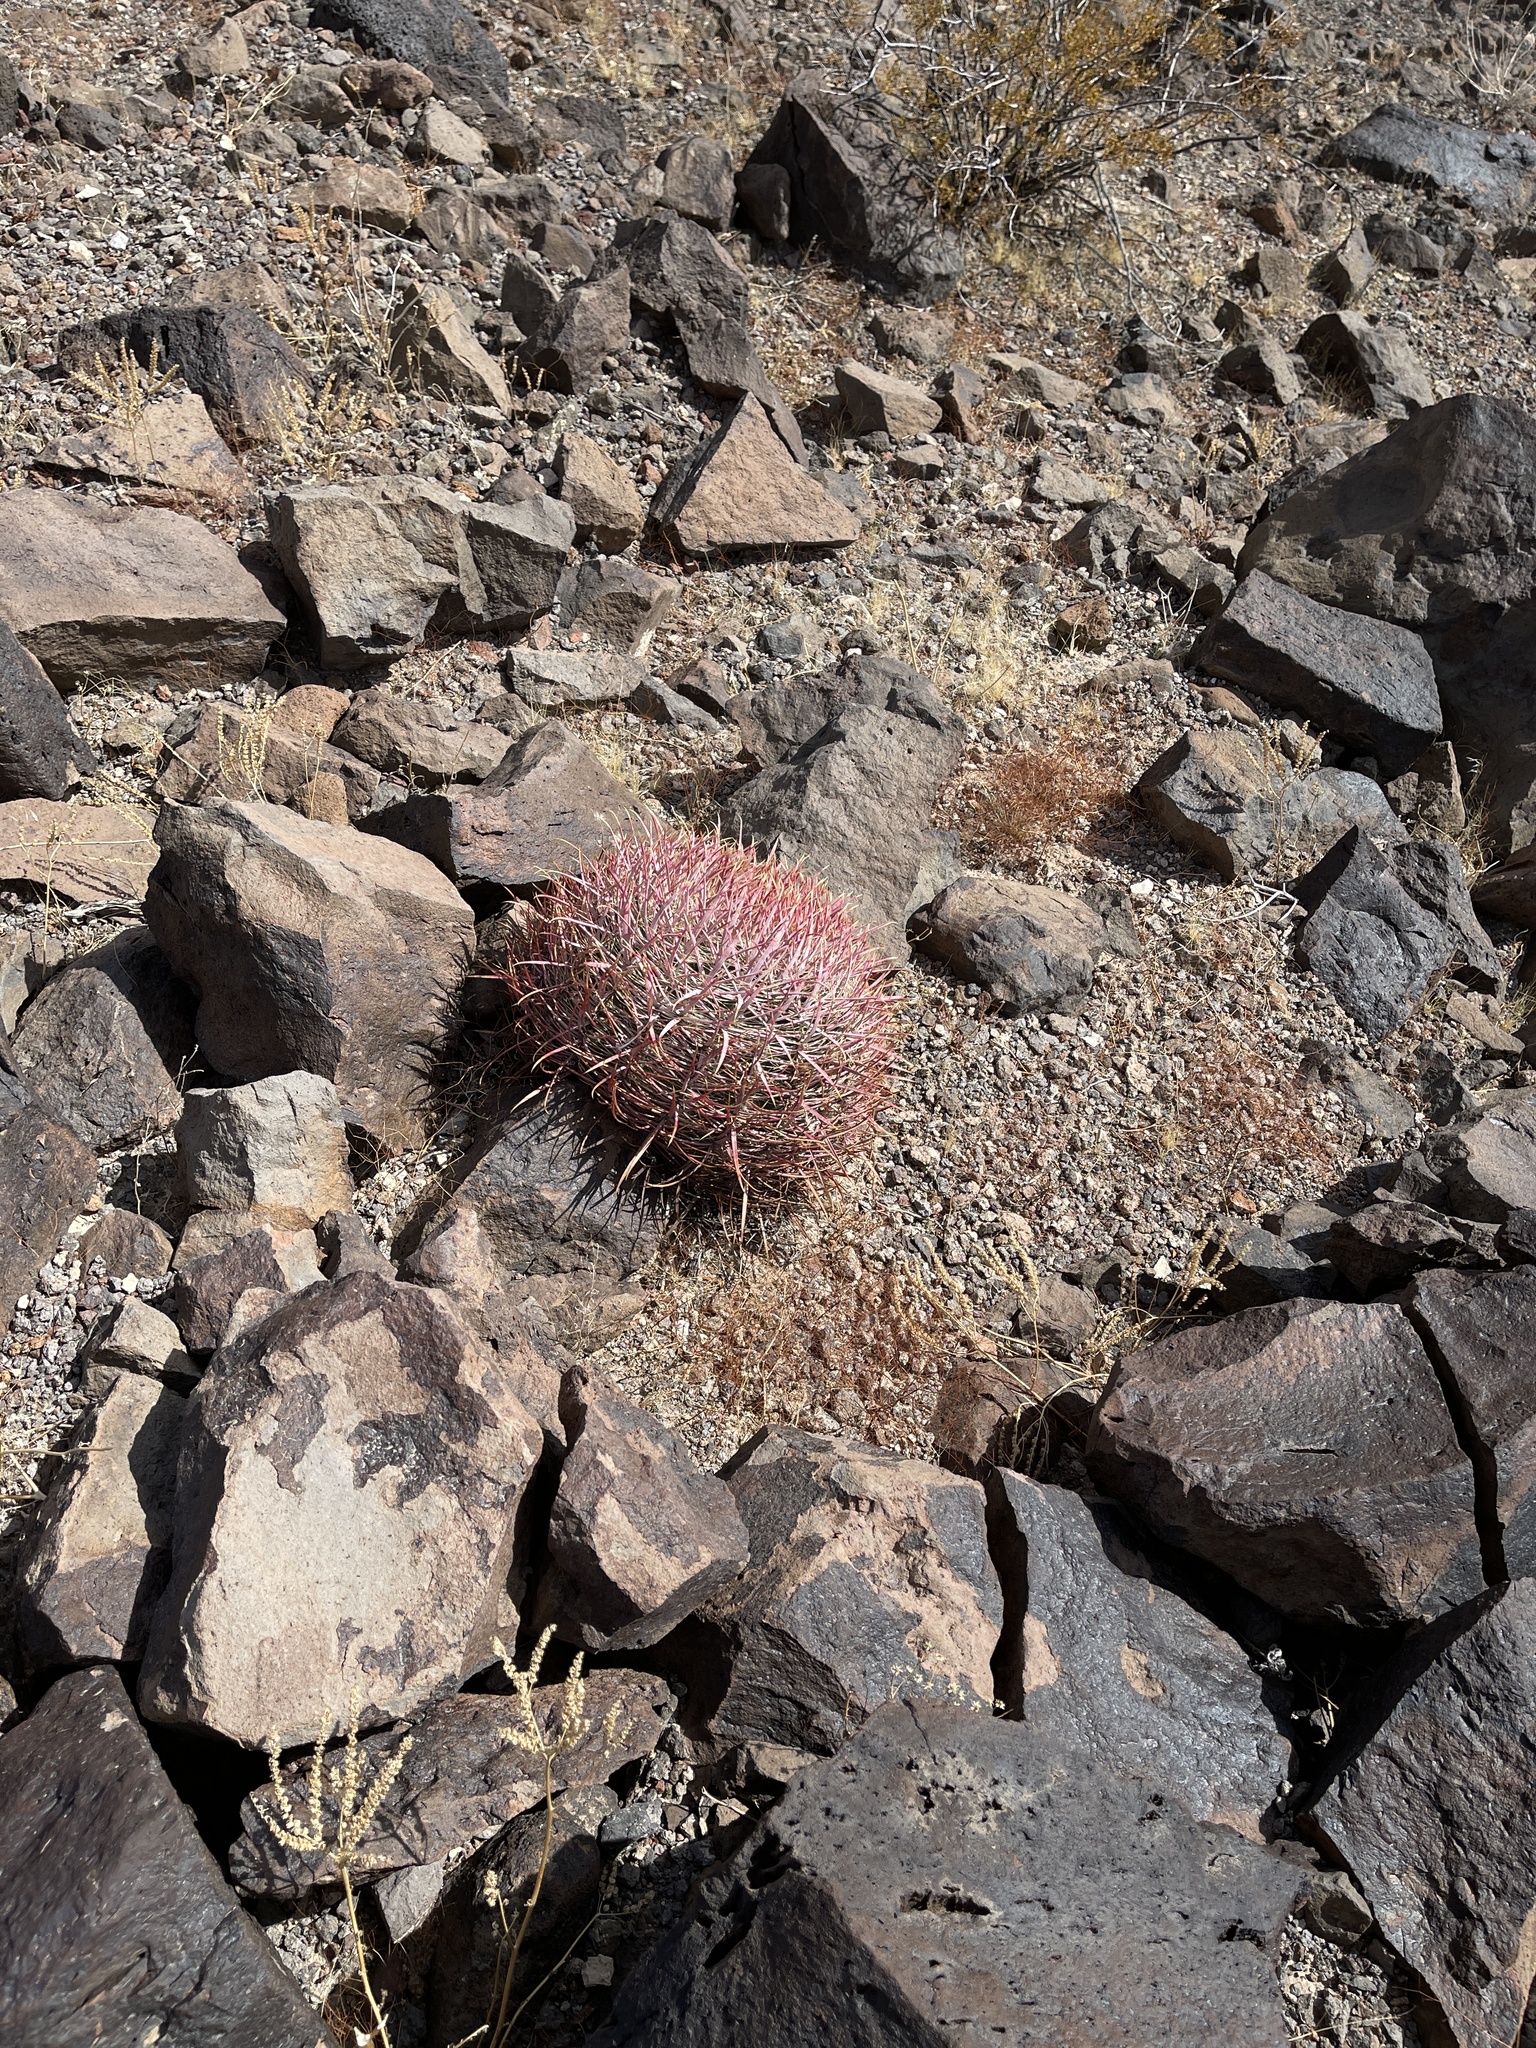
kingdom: Plantae
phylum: Tracheophyta
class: Magnoliopsida
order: Caryophyllales
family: Cactaceae
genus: Ferocactus
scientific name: Ferocactus cylindraceus
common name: California barrel cactus
